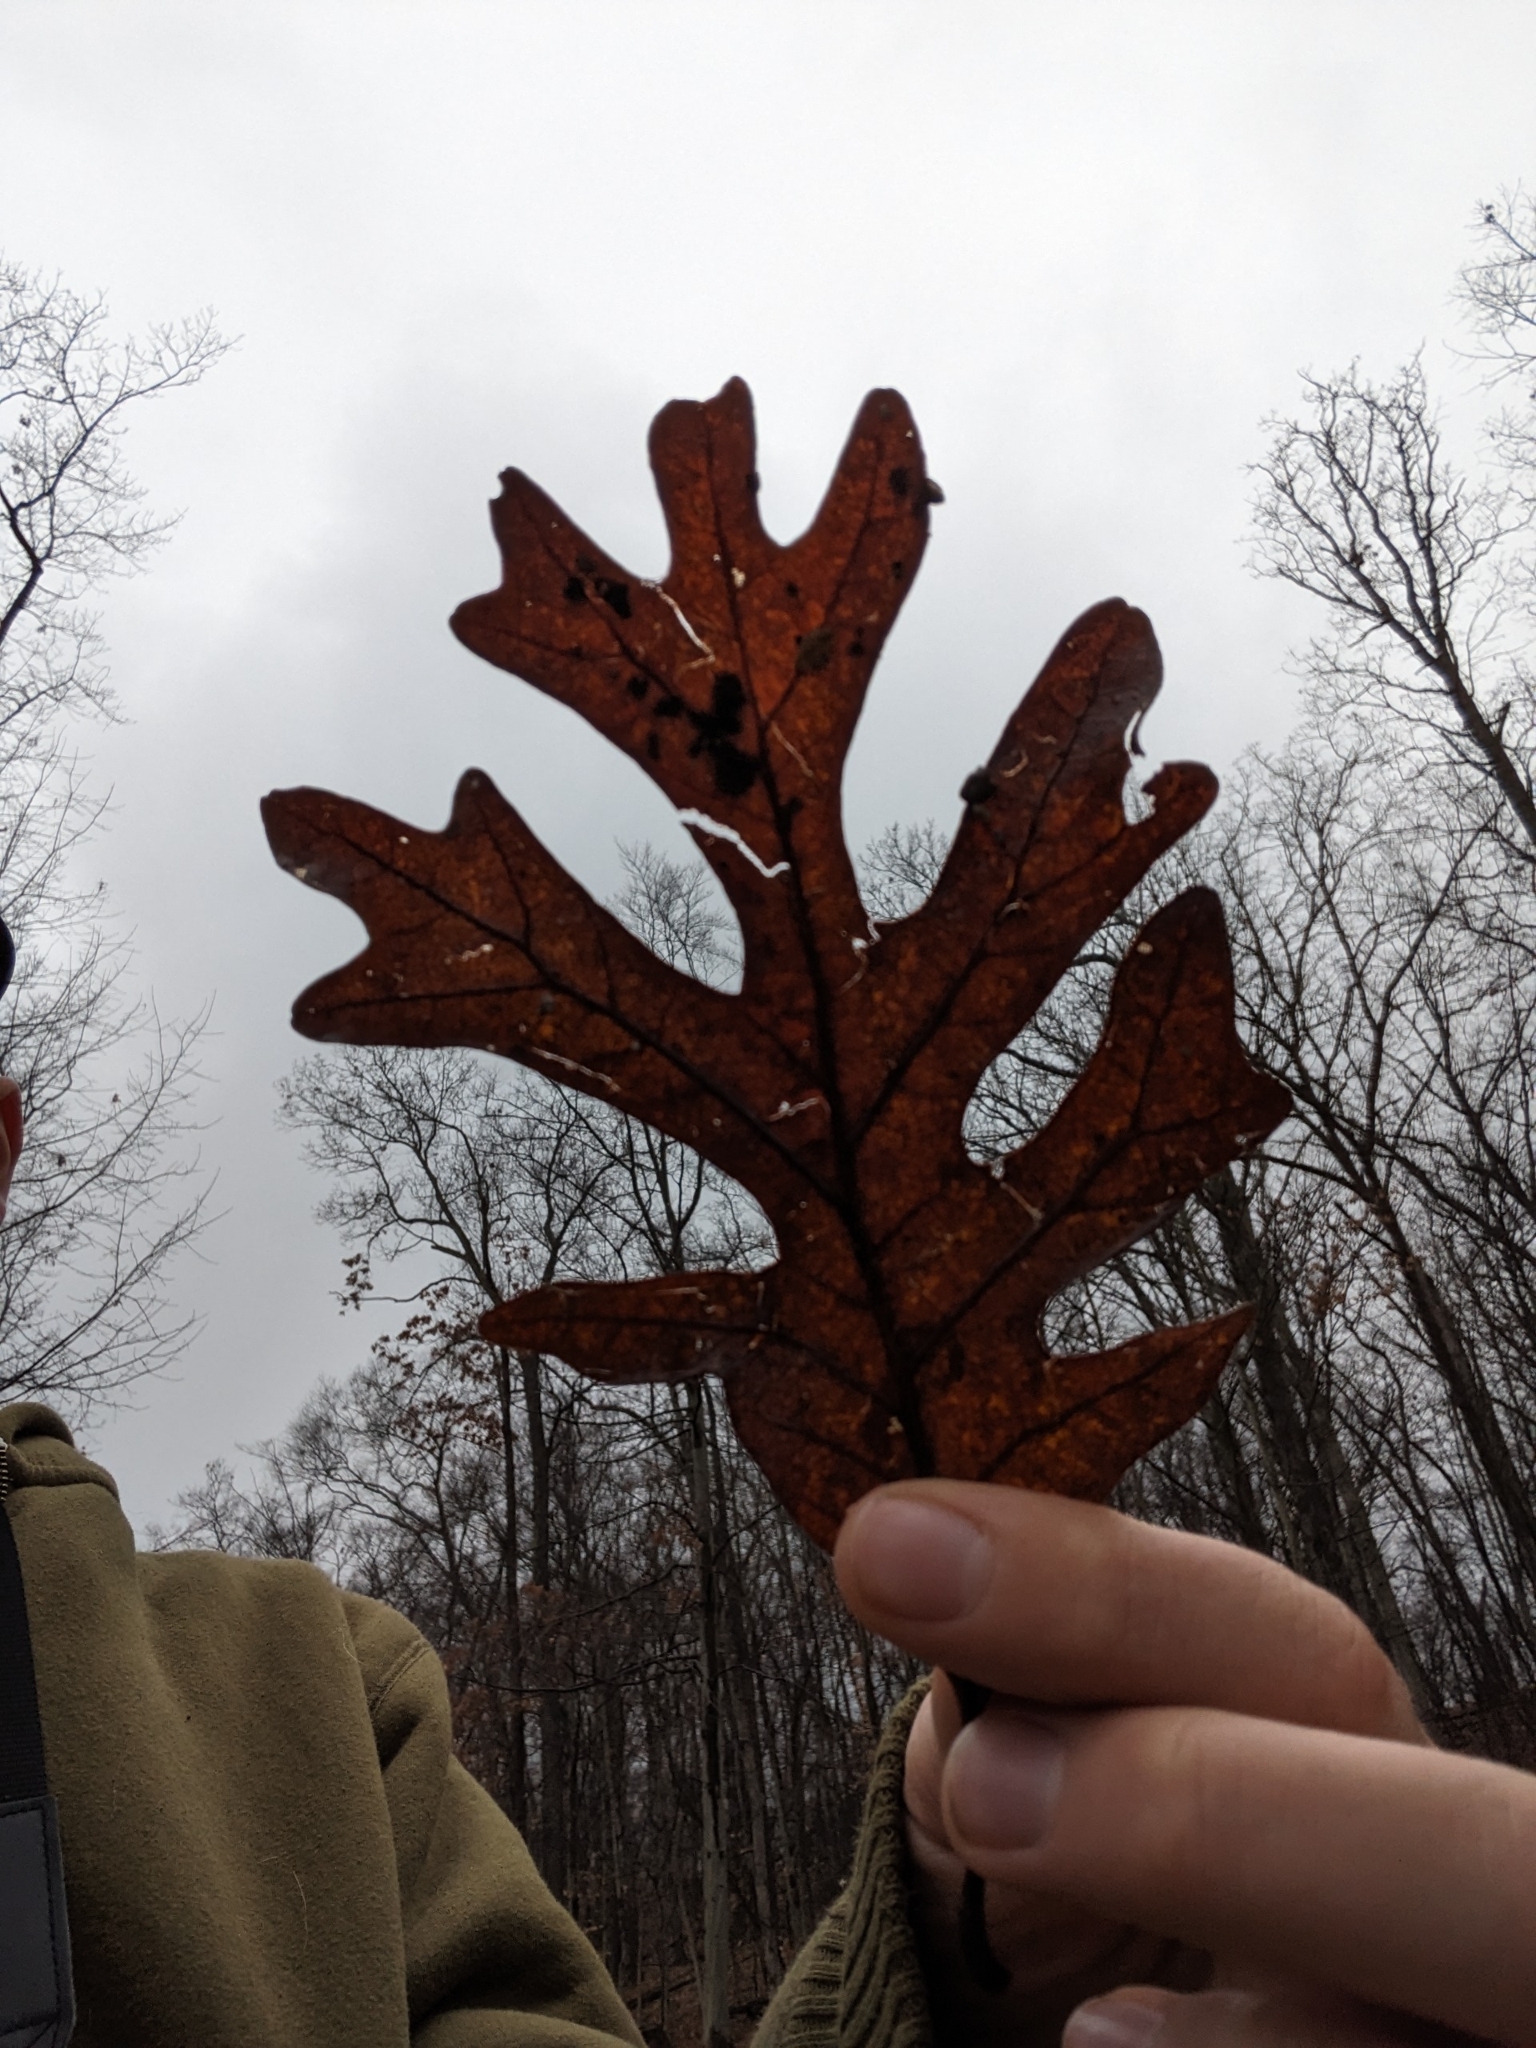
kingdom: Plantae
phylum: Tracheophyta
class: Magnoliopsida
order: Fagales
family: Fagaceae
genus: Quercus
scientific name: Quercus alba
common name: White oak
